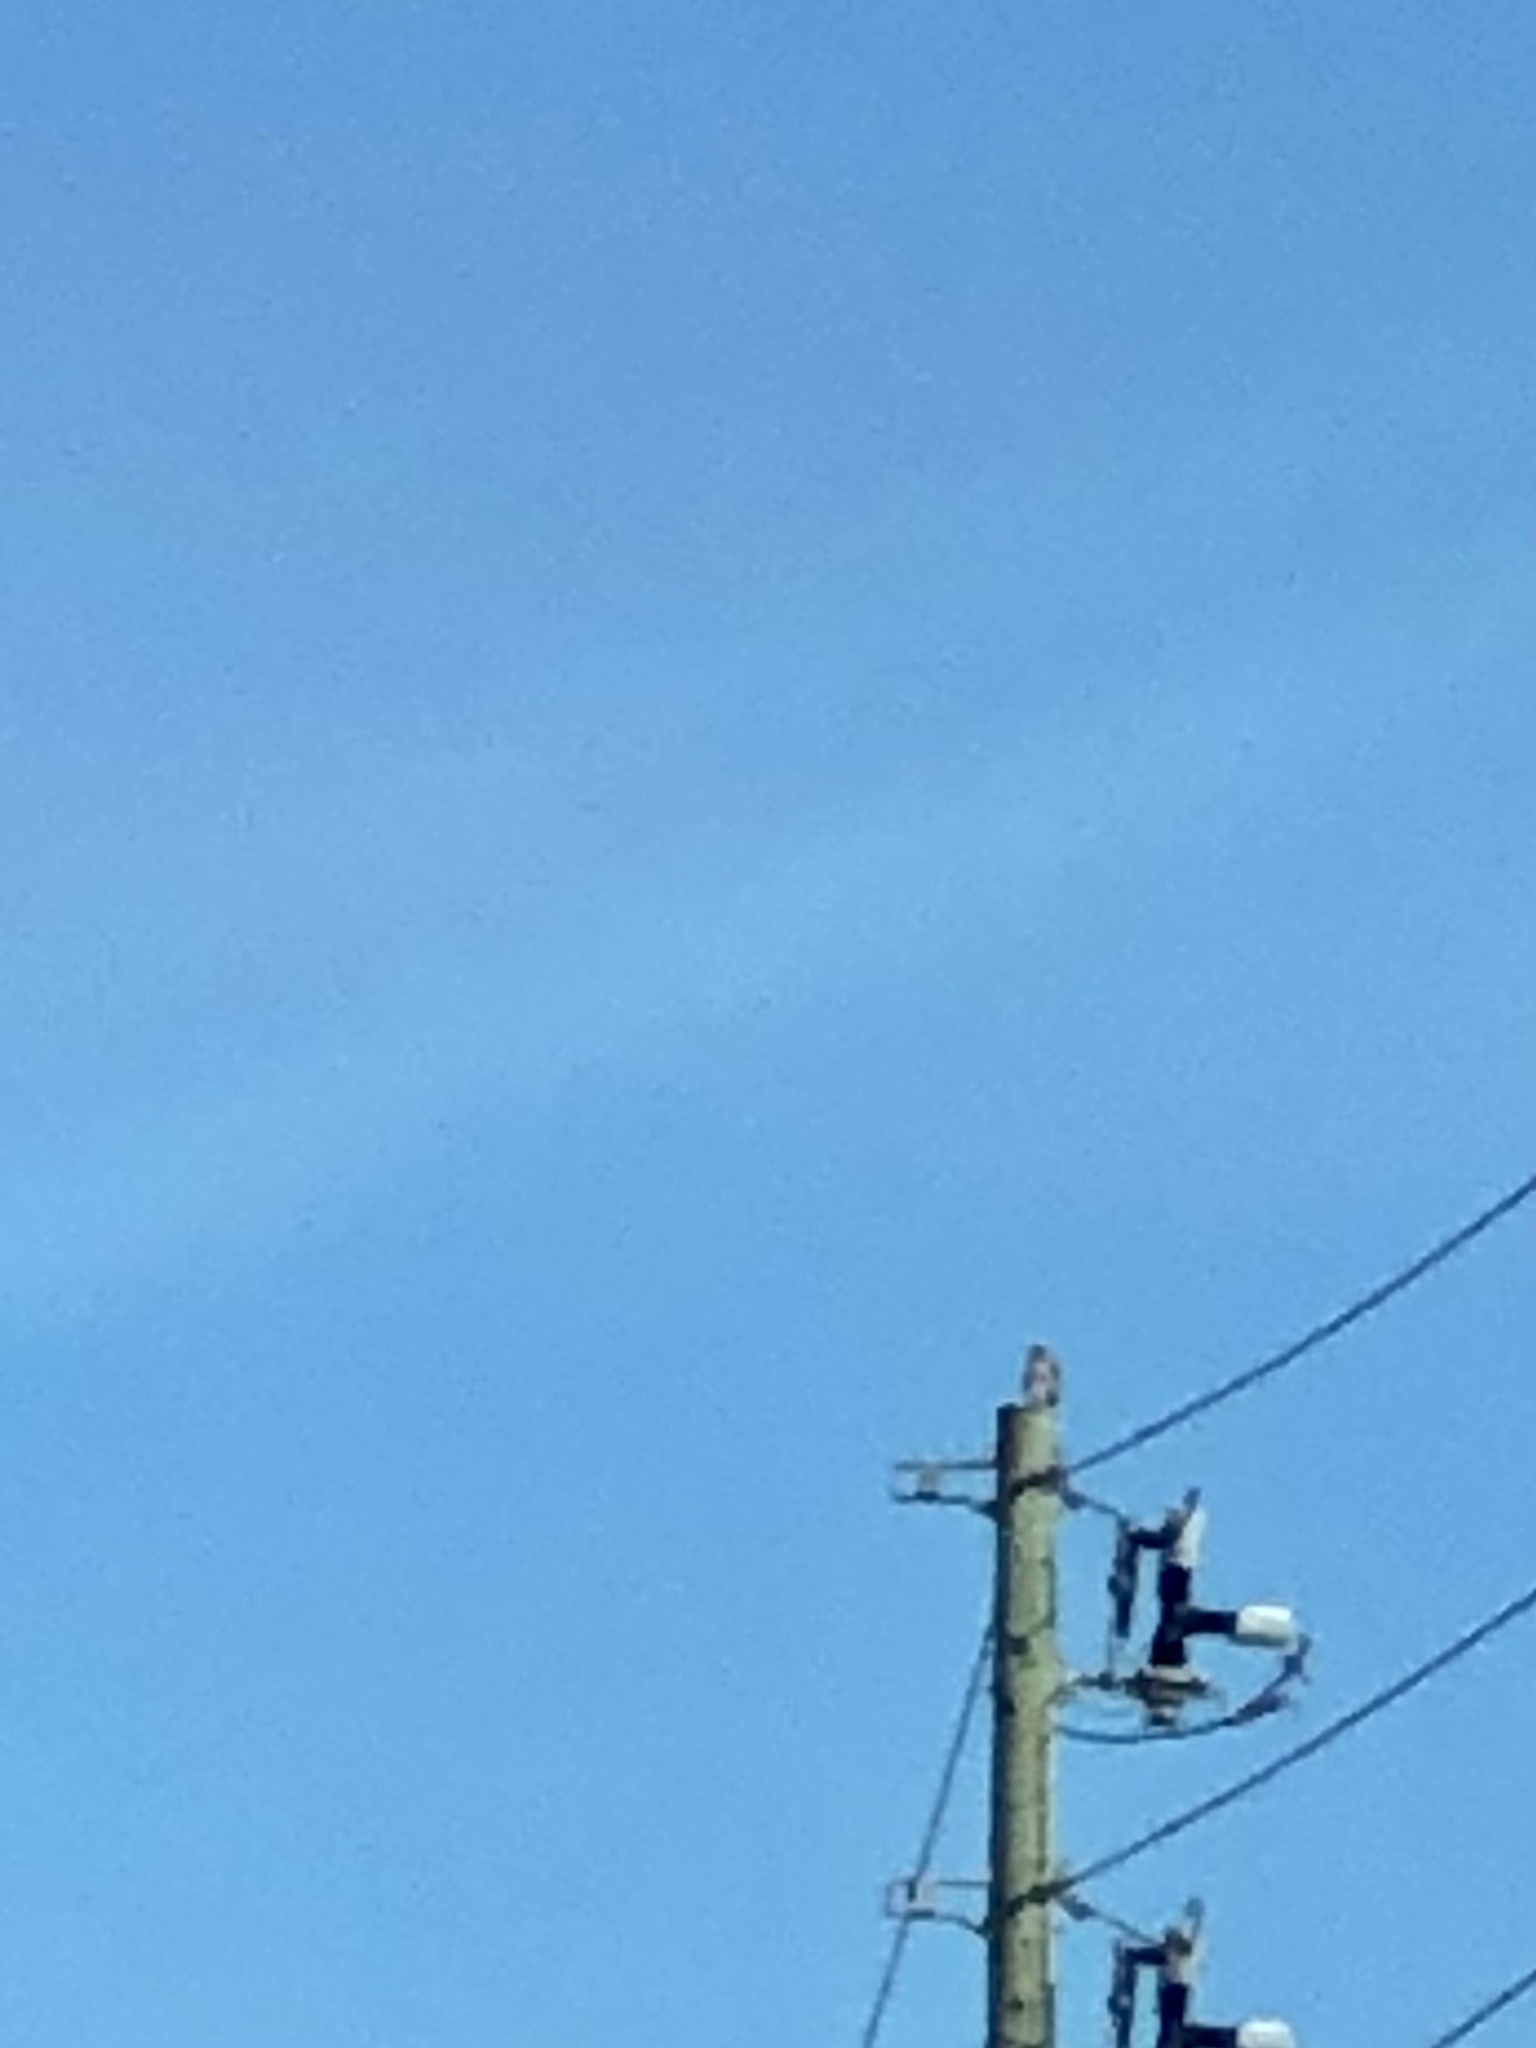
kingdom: Animalia
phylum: Chordata
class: Aves
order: Accipitriformes
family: Accipitridae
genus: Buteo
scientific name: Buteo jamaicensis
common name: Red-tailed hawk
